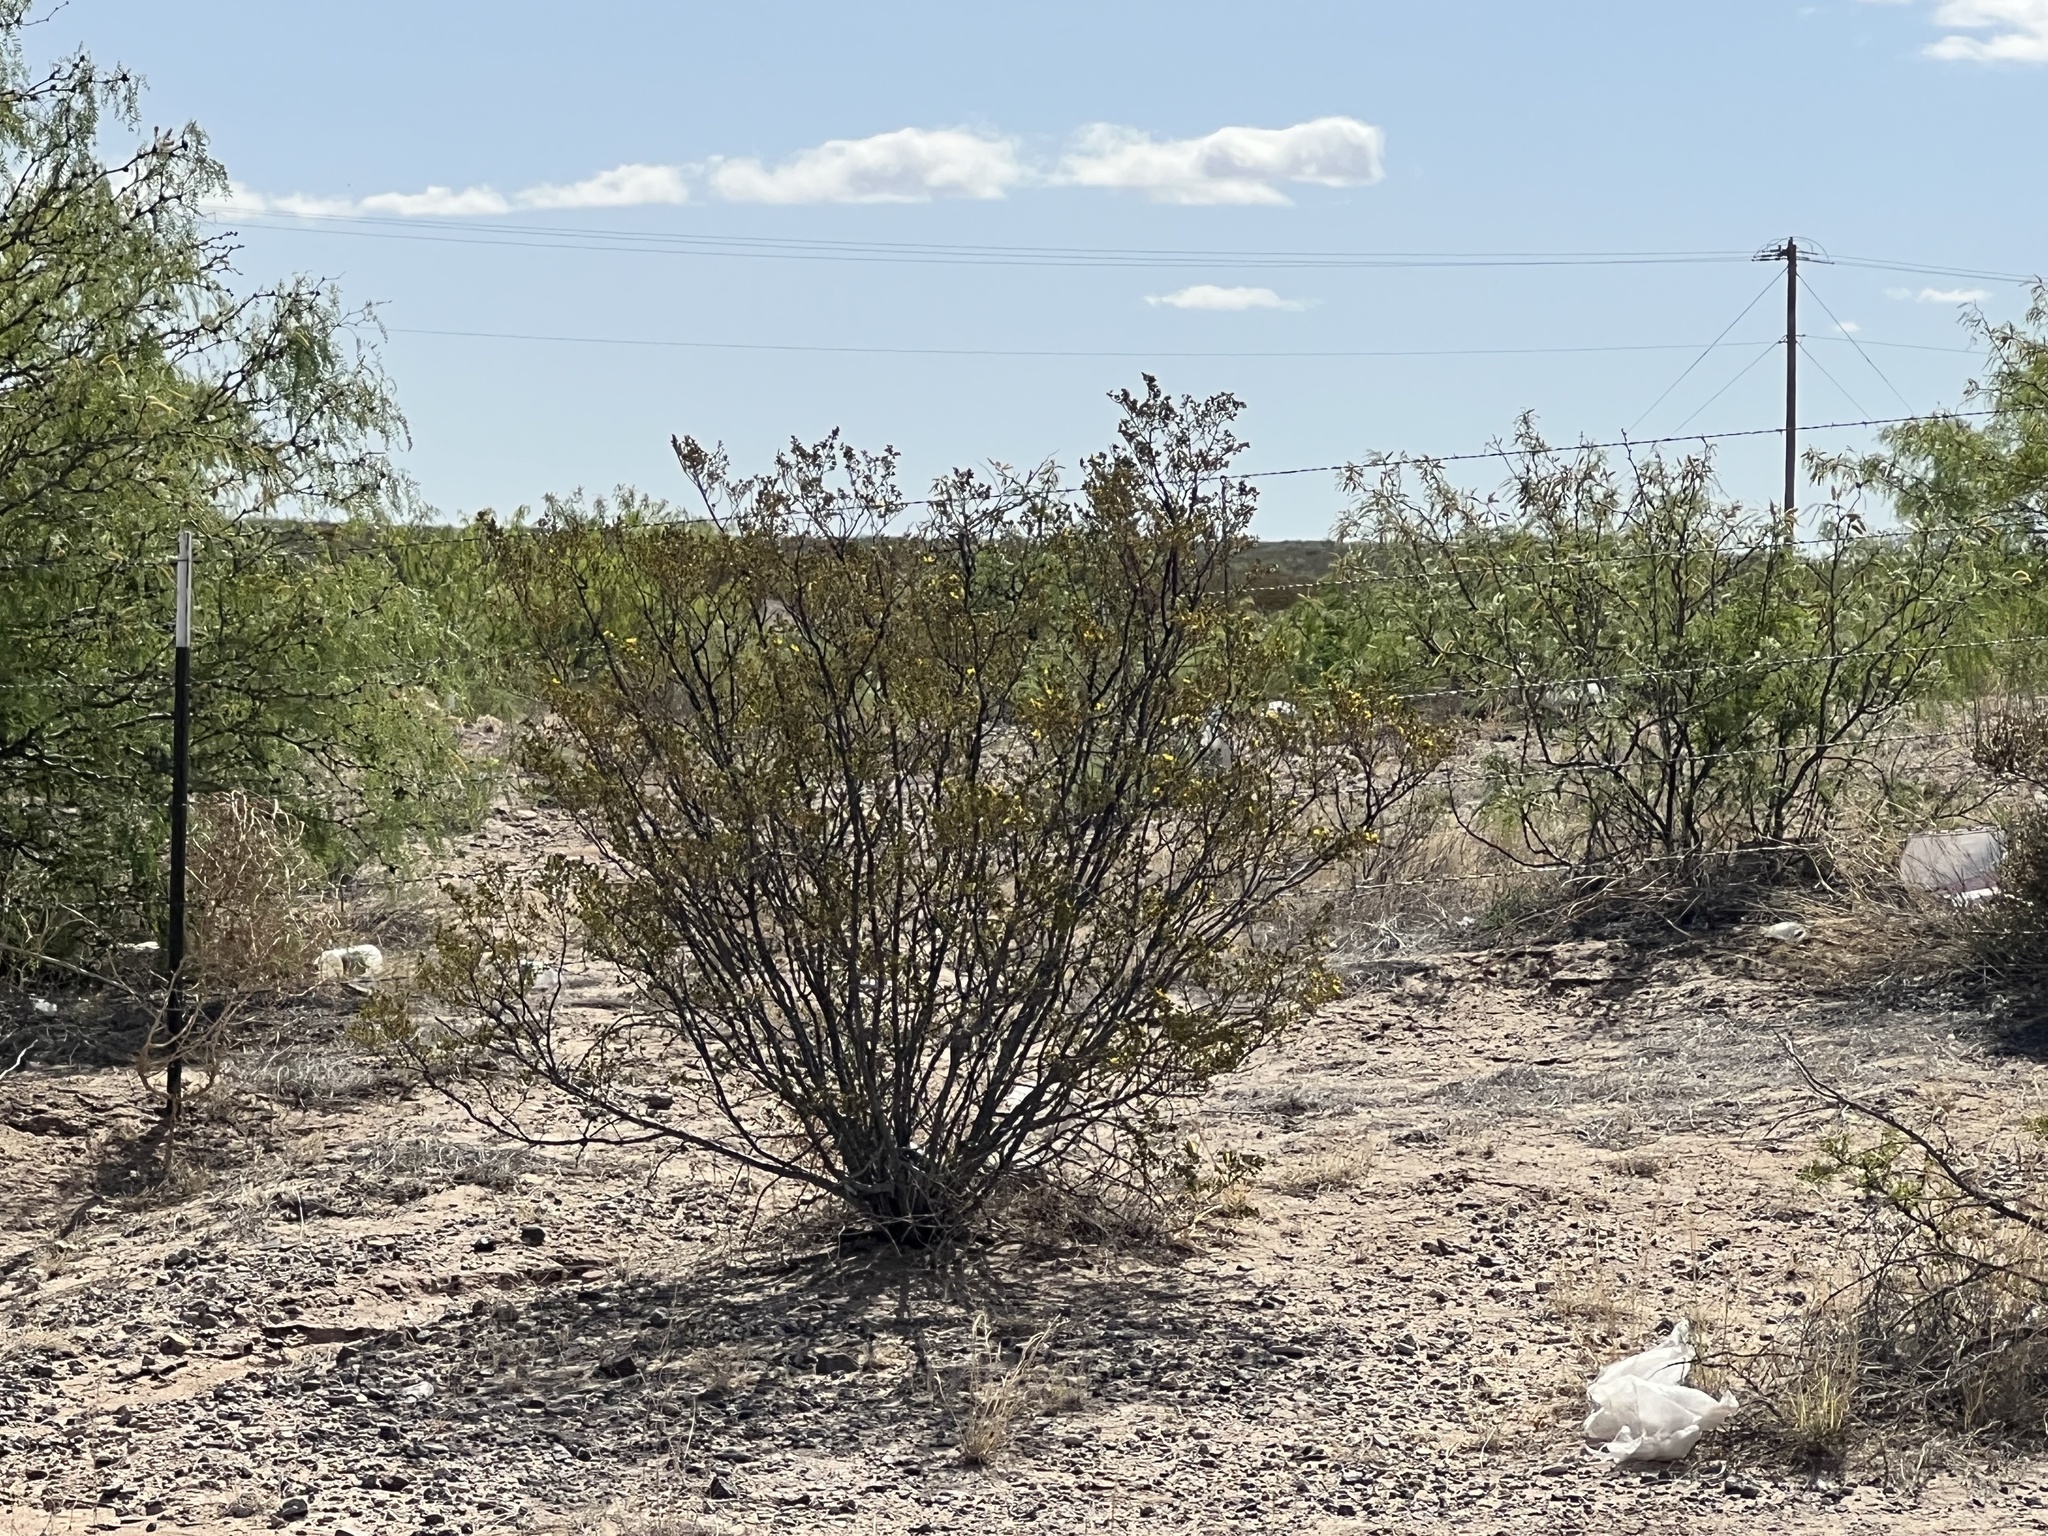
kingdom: Plantae
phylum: Tracheophyta
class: Magnoliopsida
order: Zygophyllales
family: Zygophyllaceae
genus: Larrea
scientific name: Larrea tridentata
